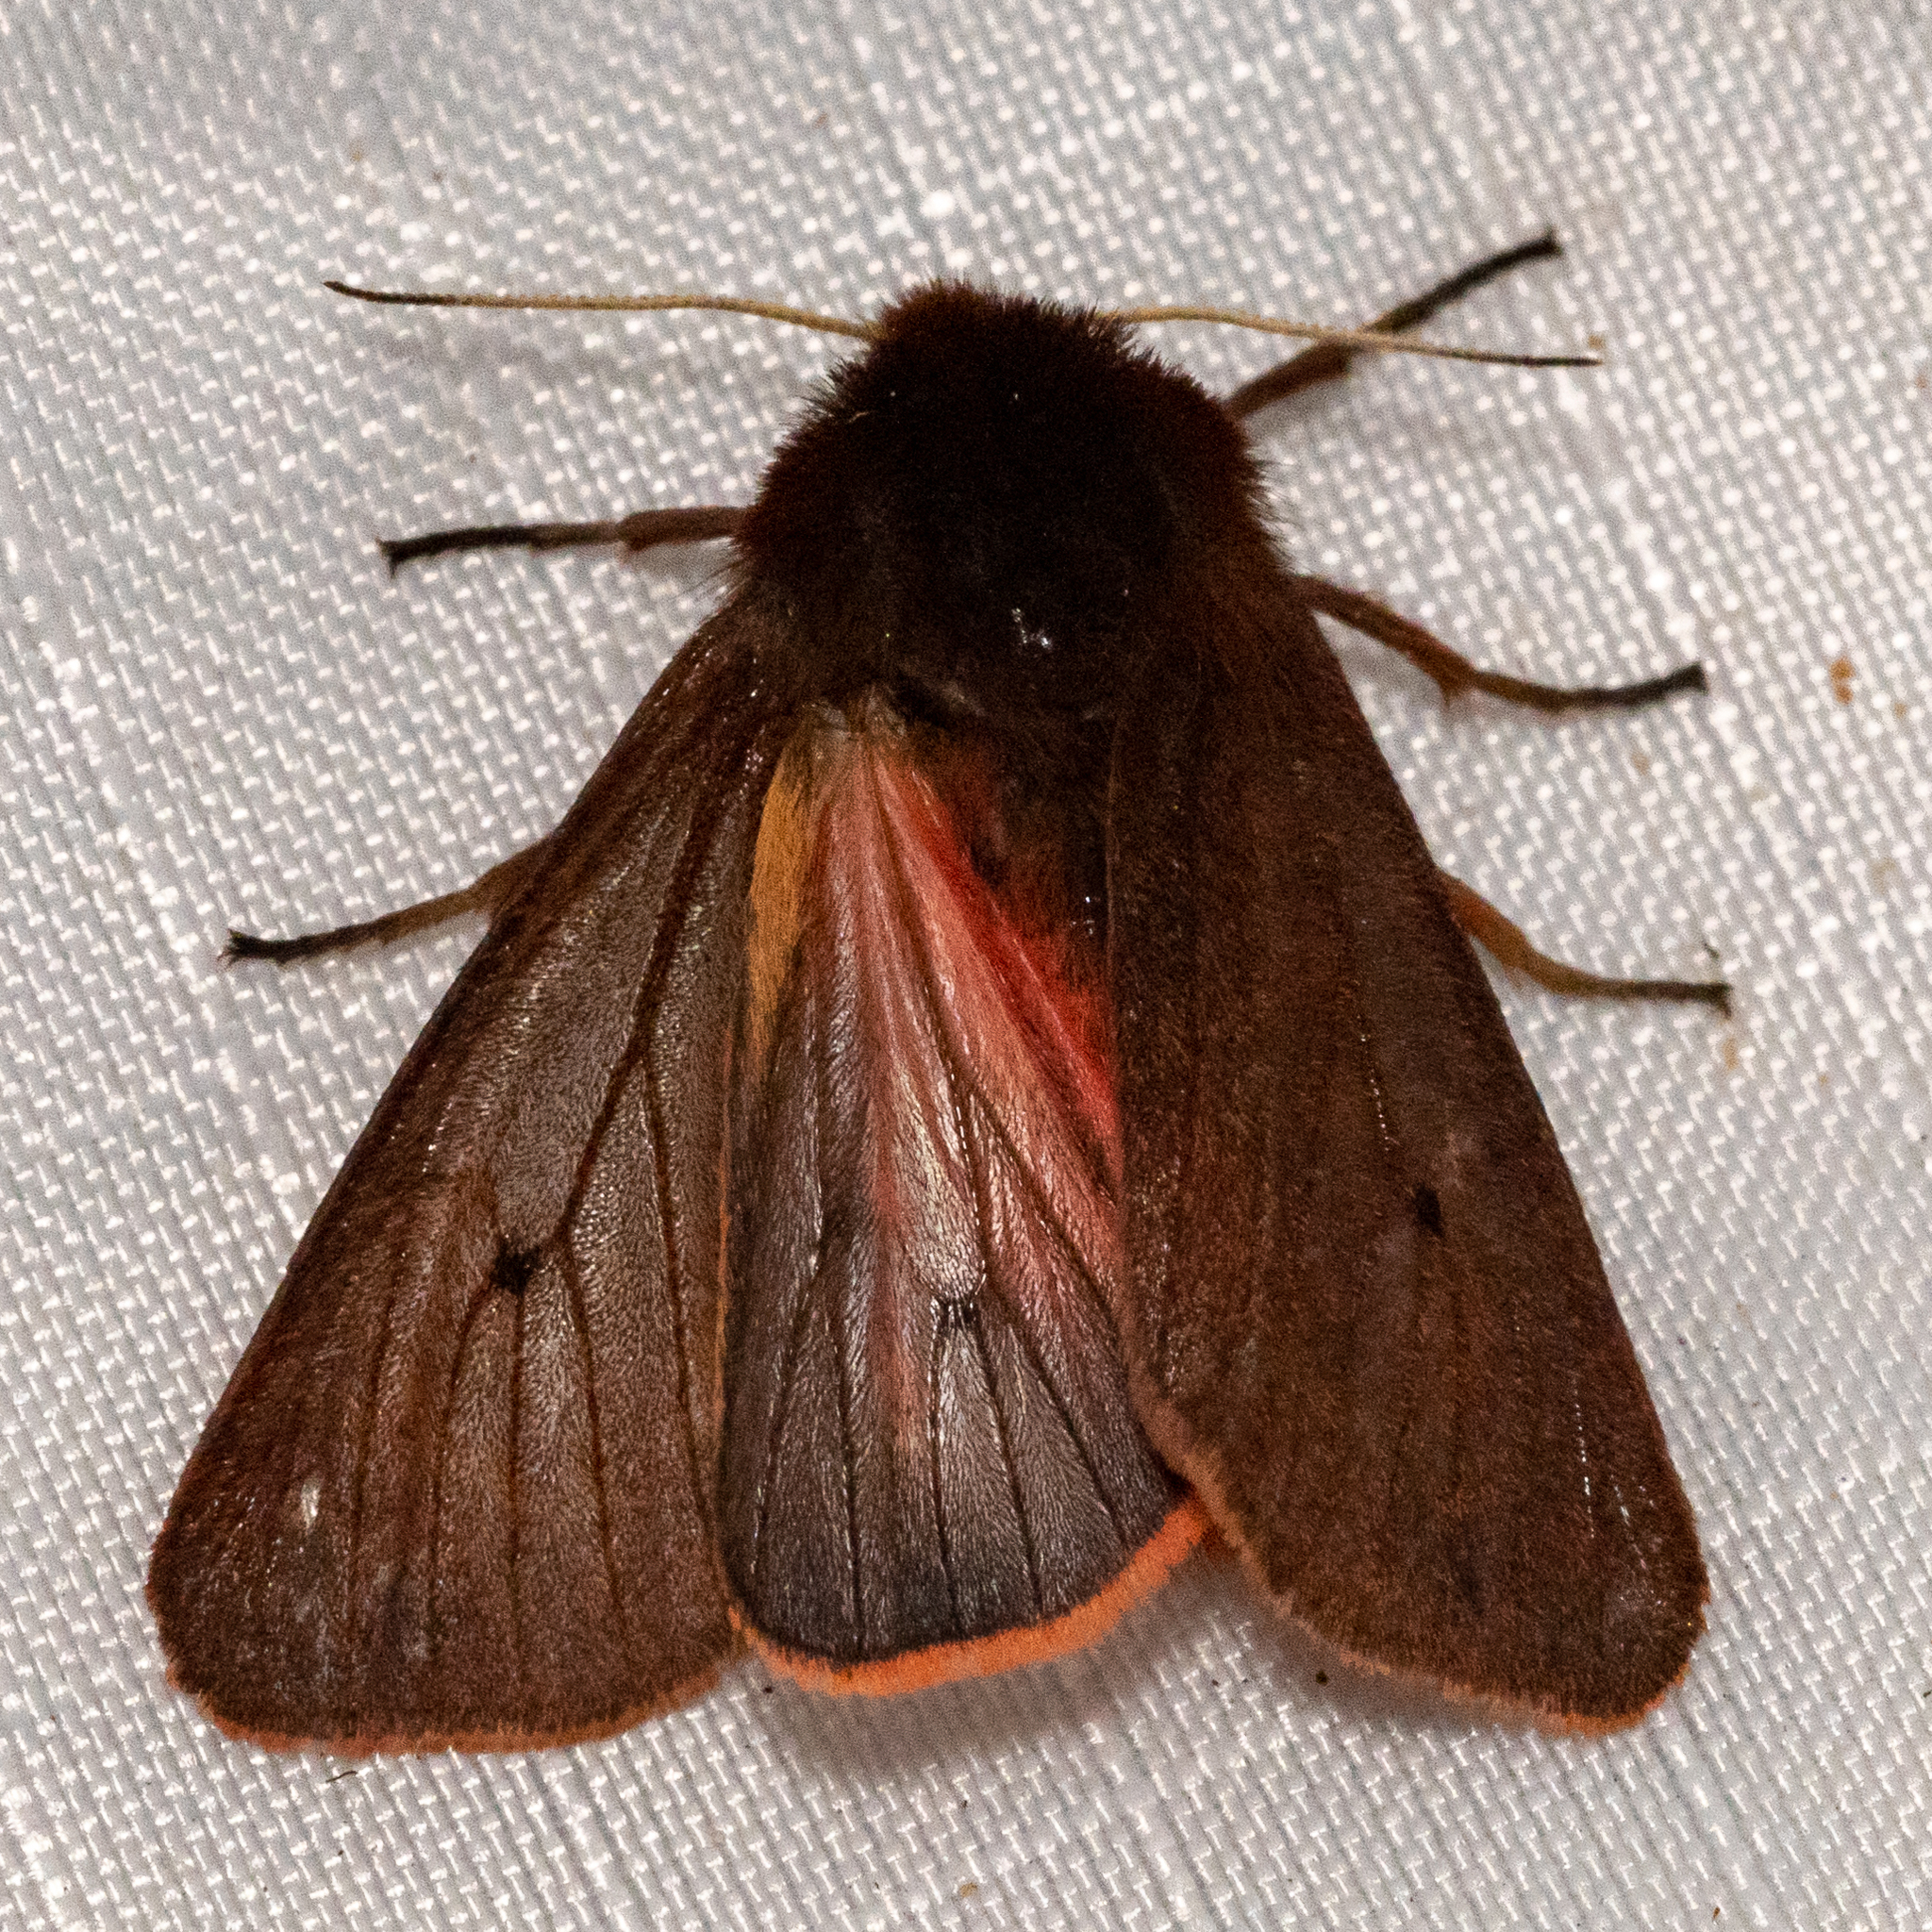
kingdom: Animalia
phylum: Arthropoda
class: Insecta
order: Lepidoptera
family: Erebidae
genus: Phragmatobia
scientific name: Phragmatobia fuliginosa
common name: Ruby tiger
